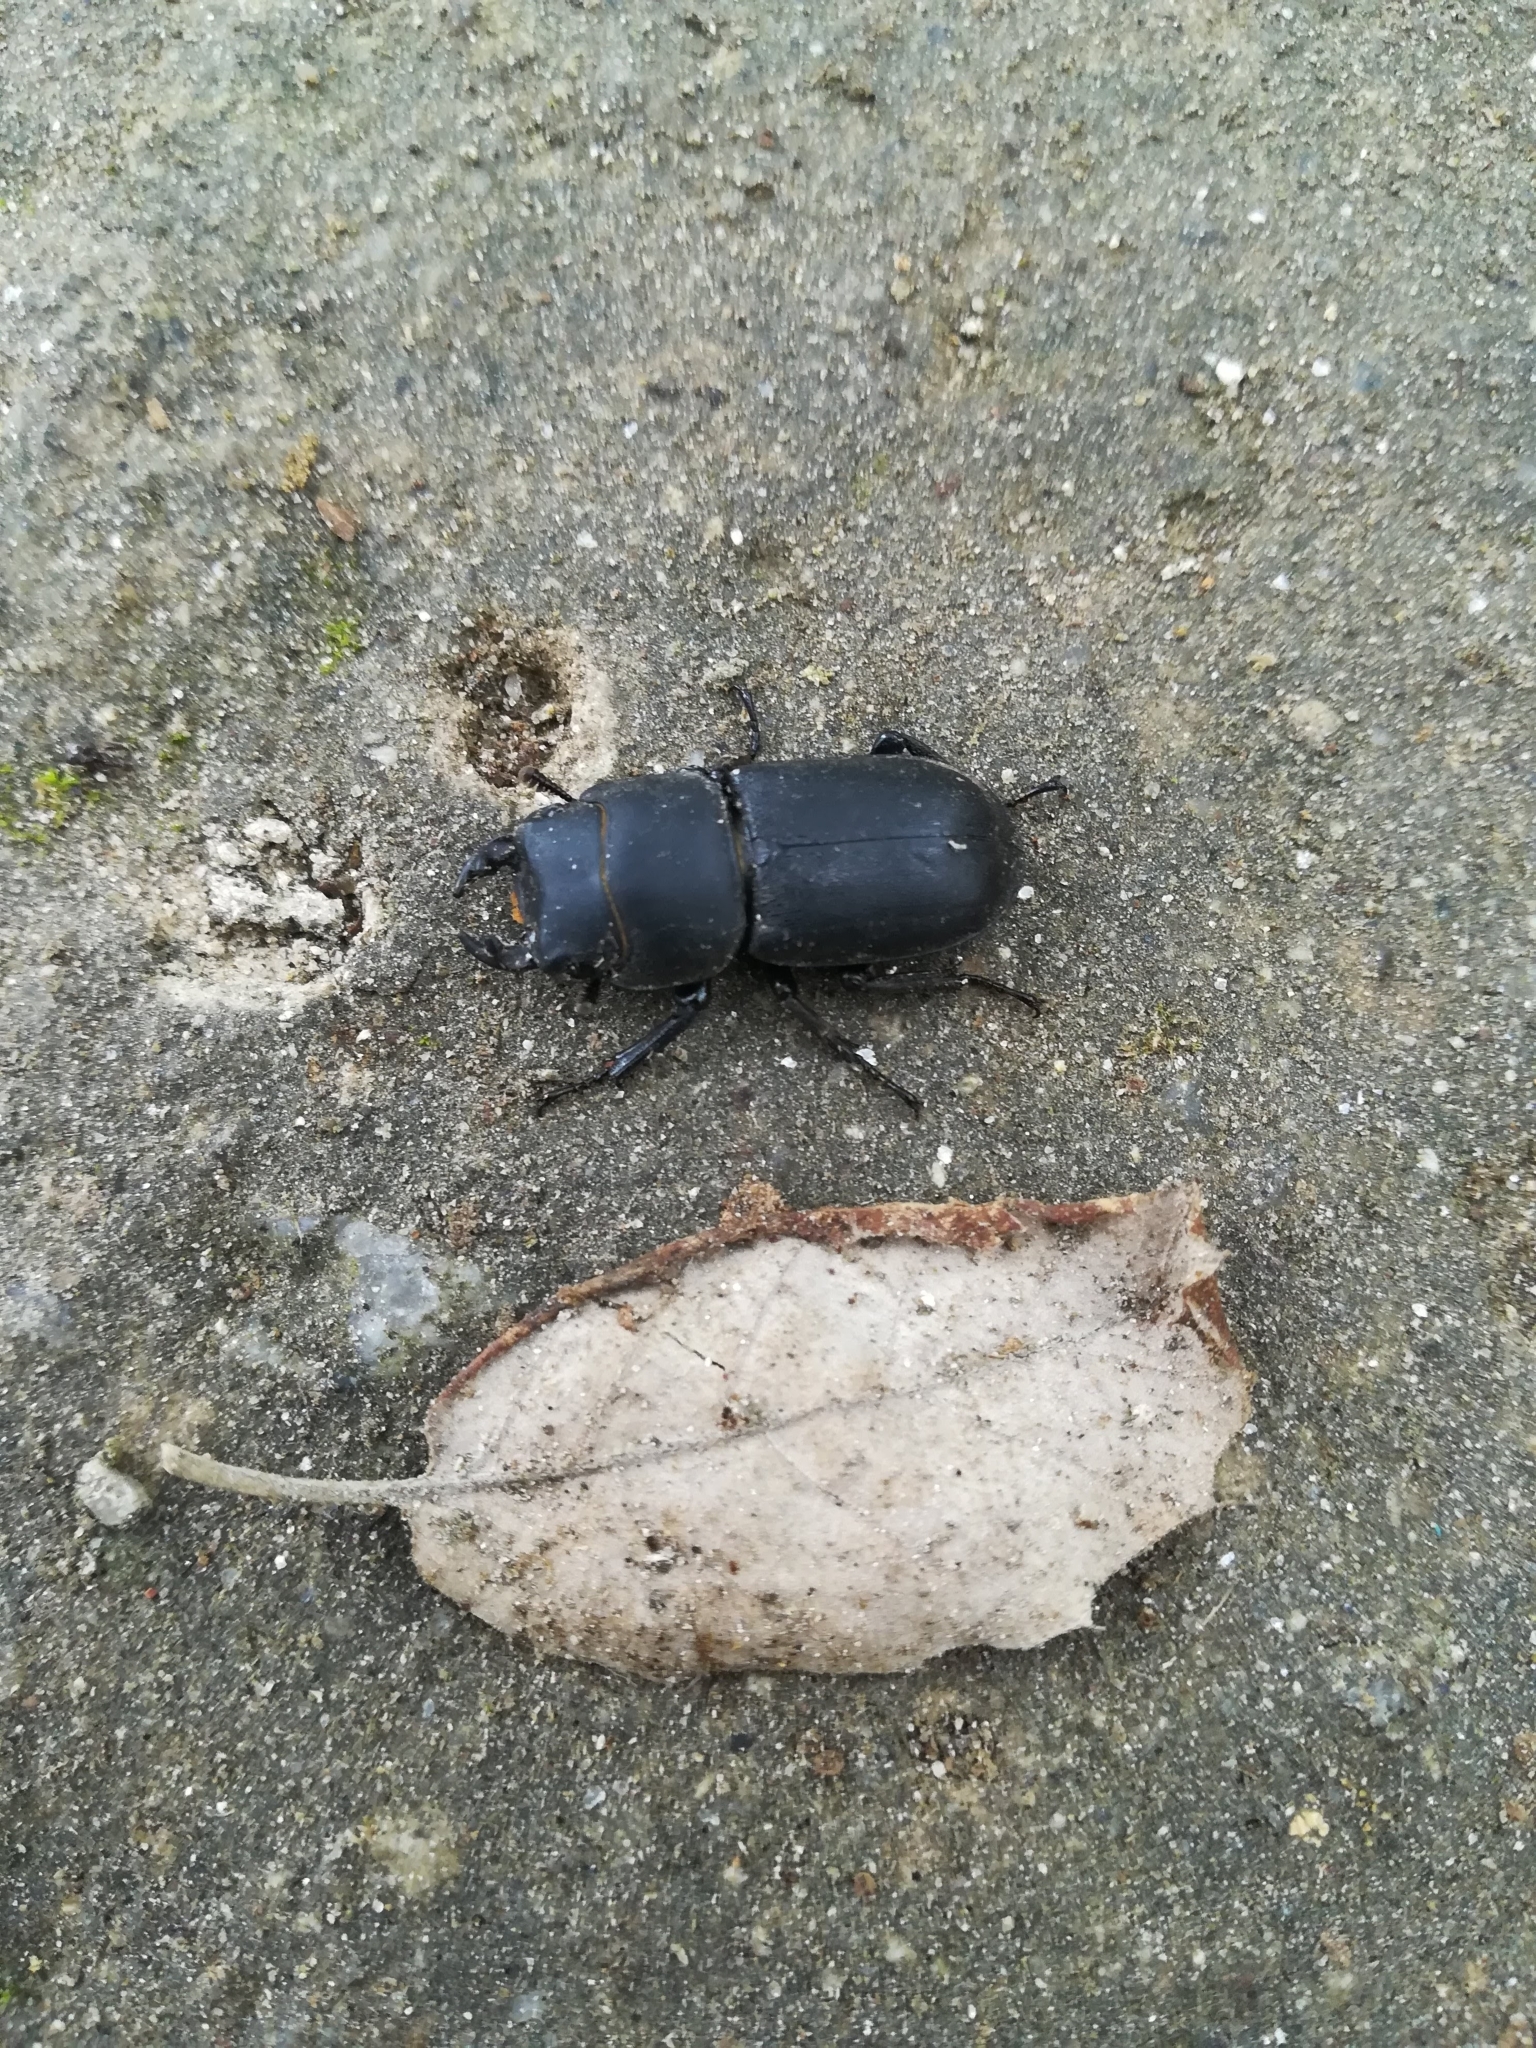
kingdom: Animalia
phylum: Arthropoda
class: Insecta
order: Coleoptera
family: Lucanidae
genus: Dorcus
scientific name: Dorcus parallelipipedus
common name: Lesser stag beetle
